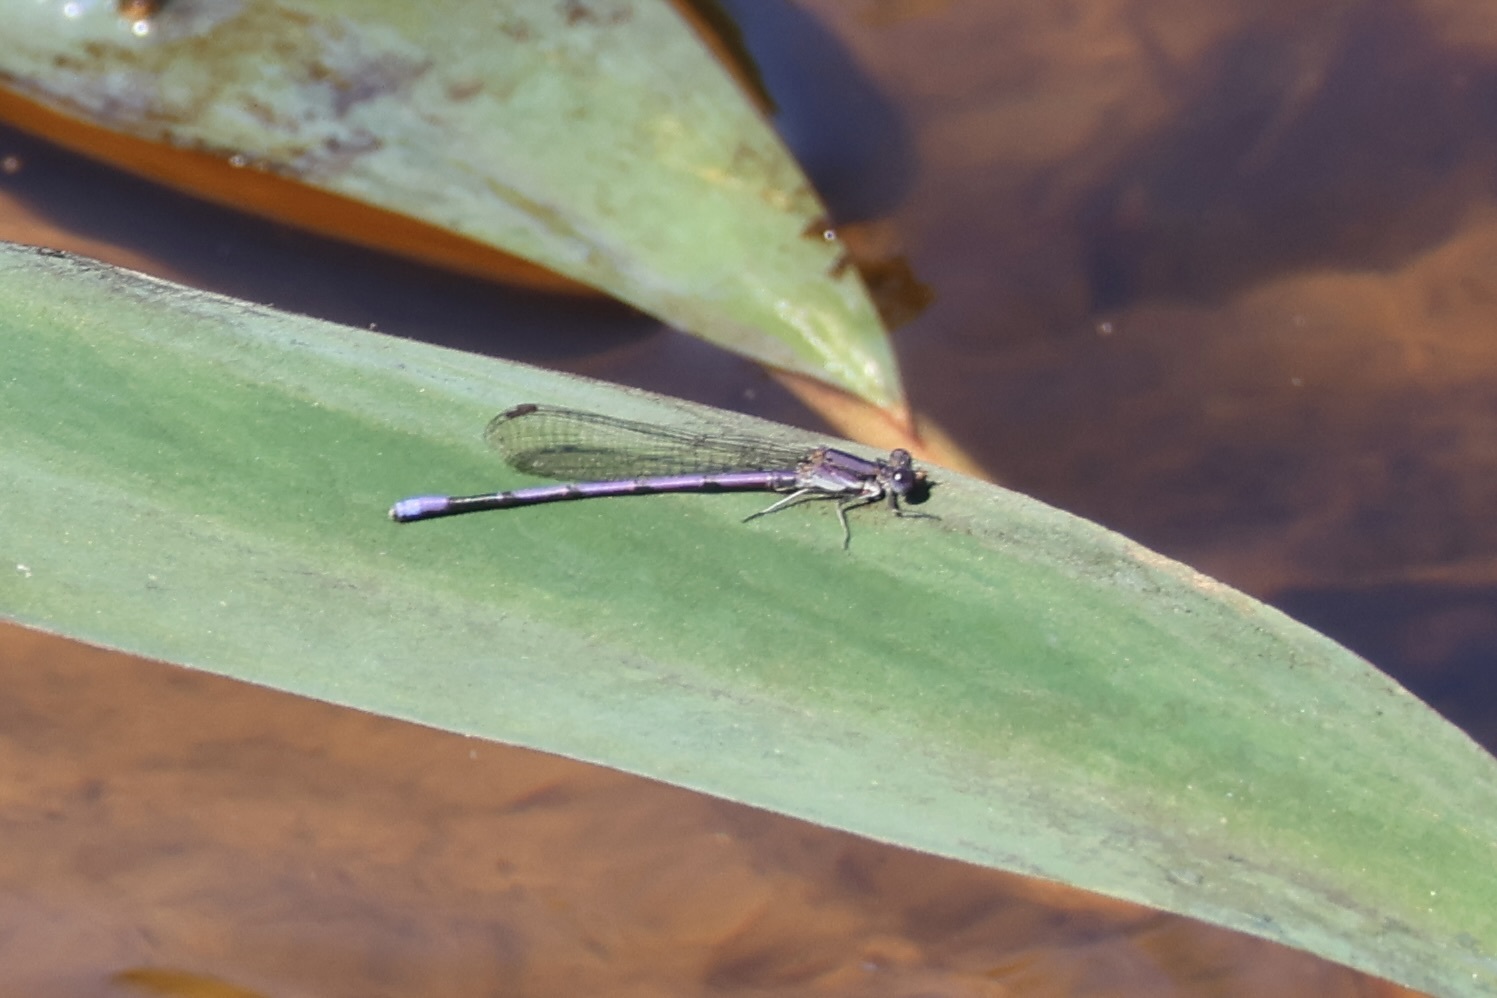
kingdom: Animalia
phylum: Arthropoda
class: Insecta
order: Odonata
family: Coenagrionidae
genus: Argia
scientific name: Argia fumipennis
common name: Variable dancer
